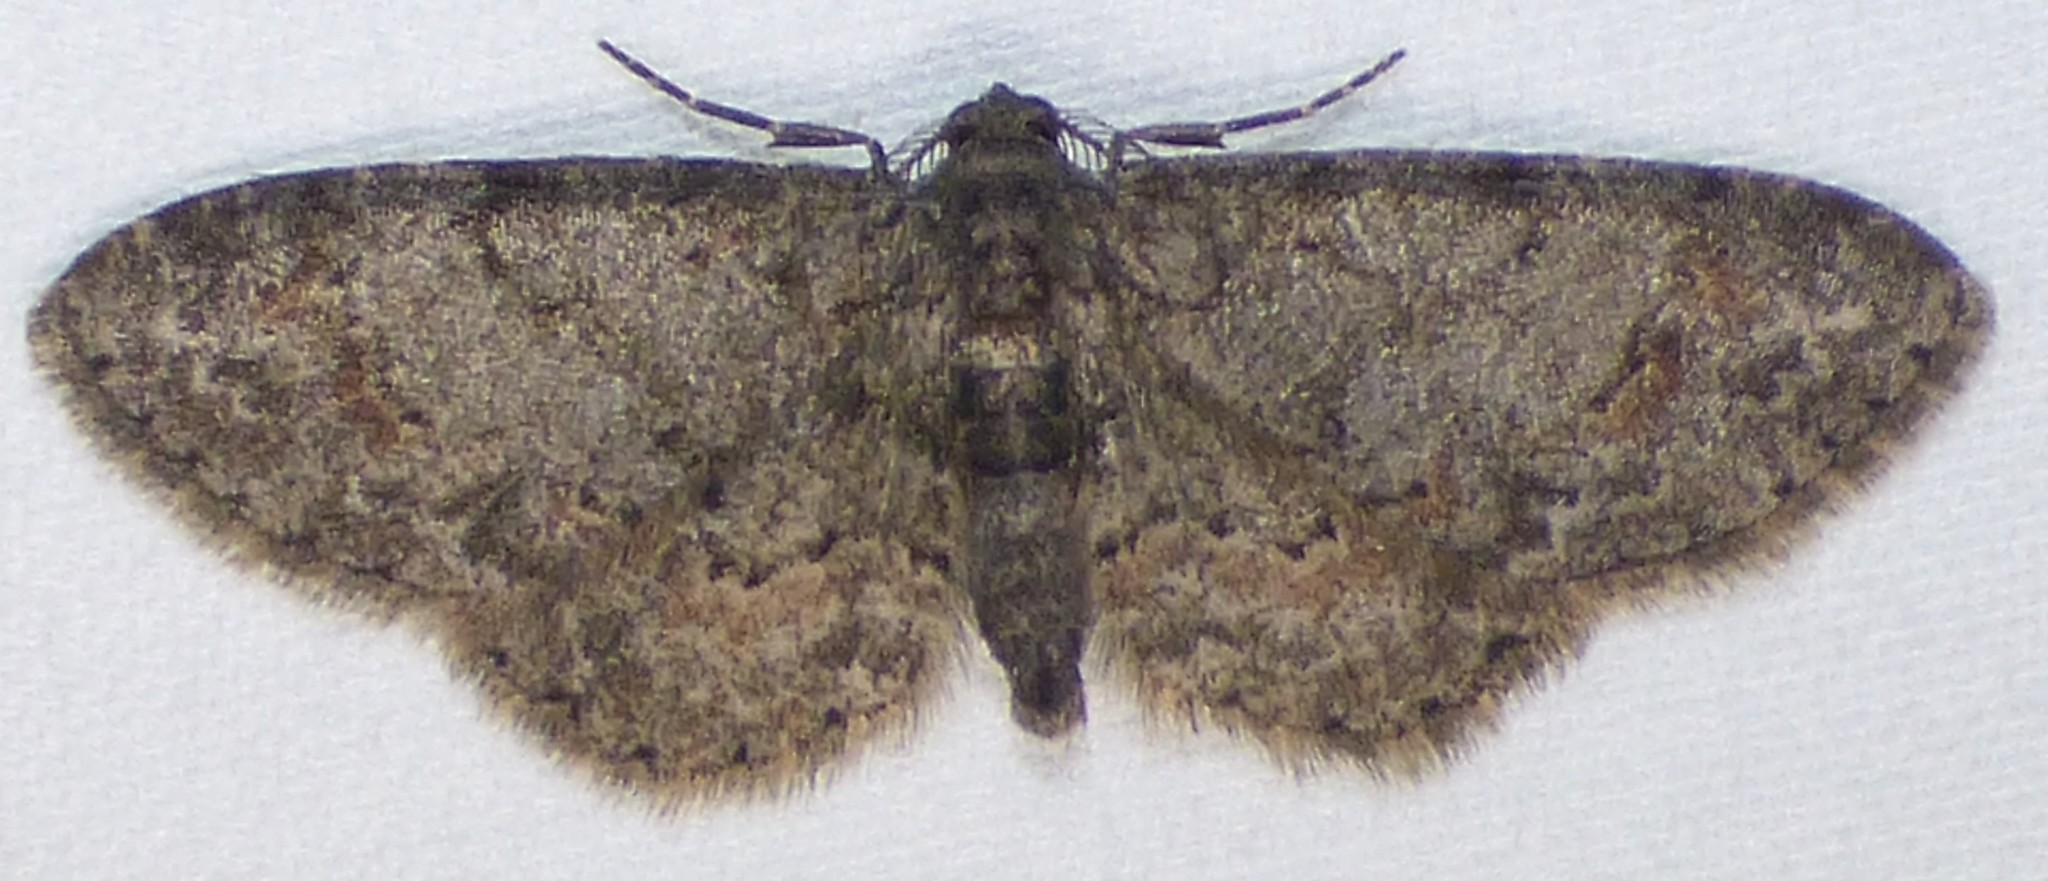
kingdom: Animalia
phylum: Arthropoda
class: Insecta
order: Lepidoptera
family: Geometridae
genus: Glenoides
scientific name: Glenoides texanaria
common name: Texas gray
